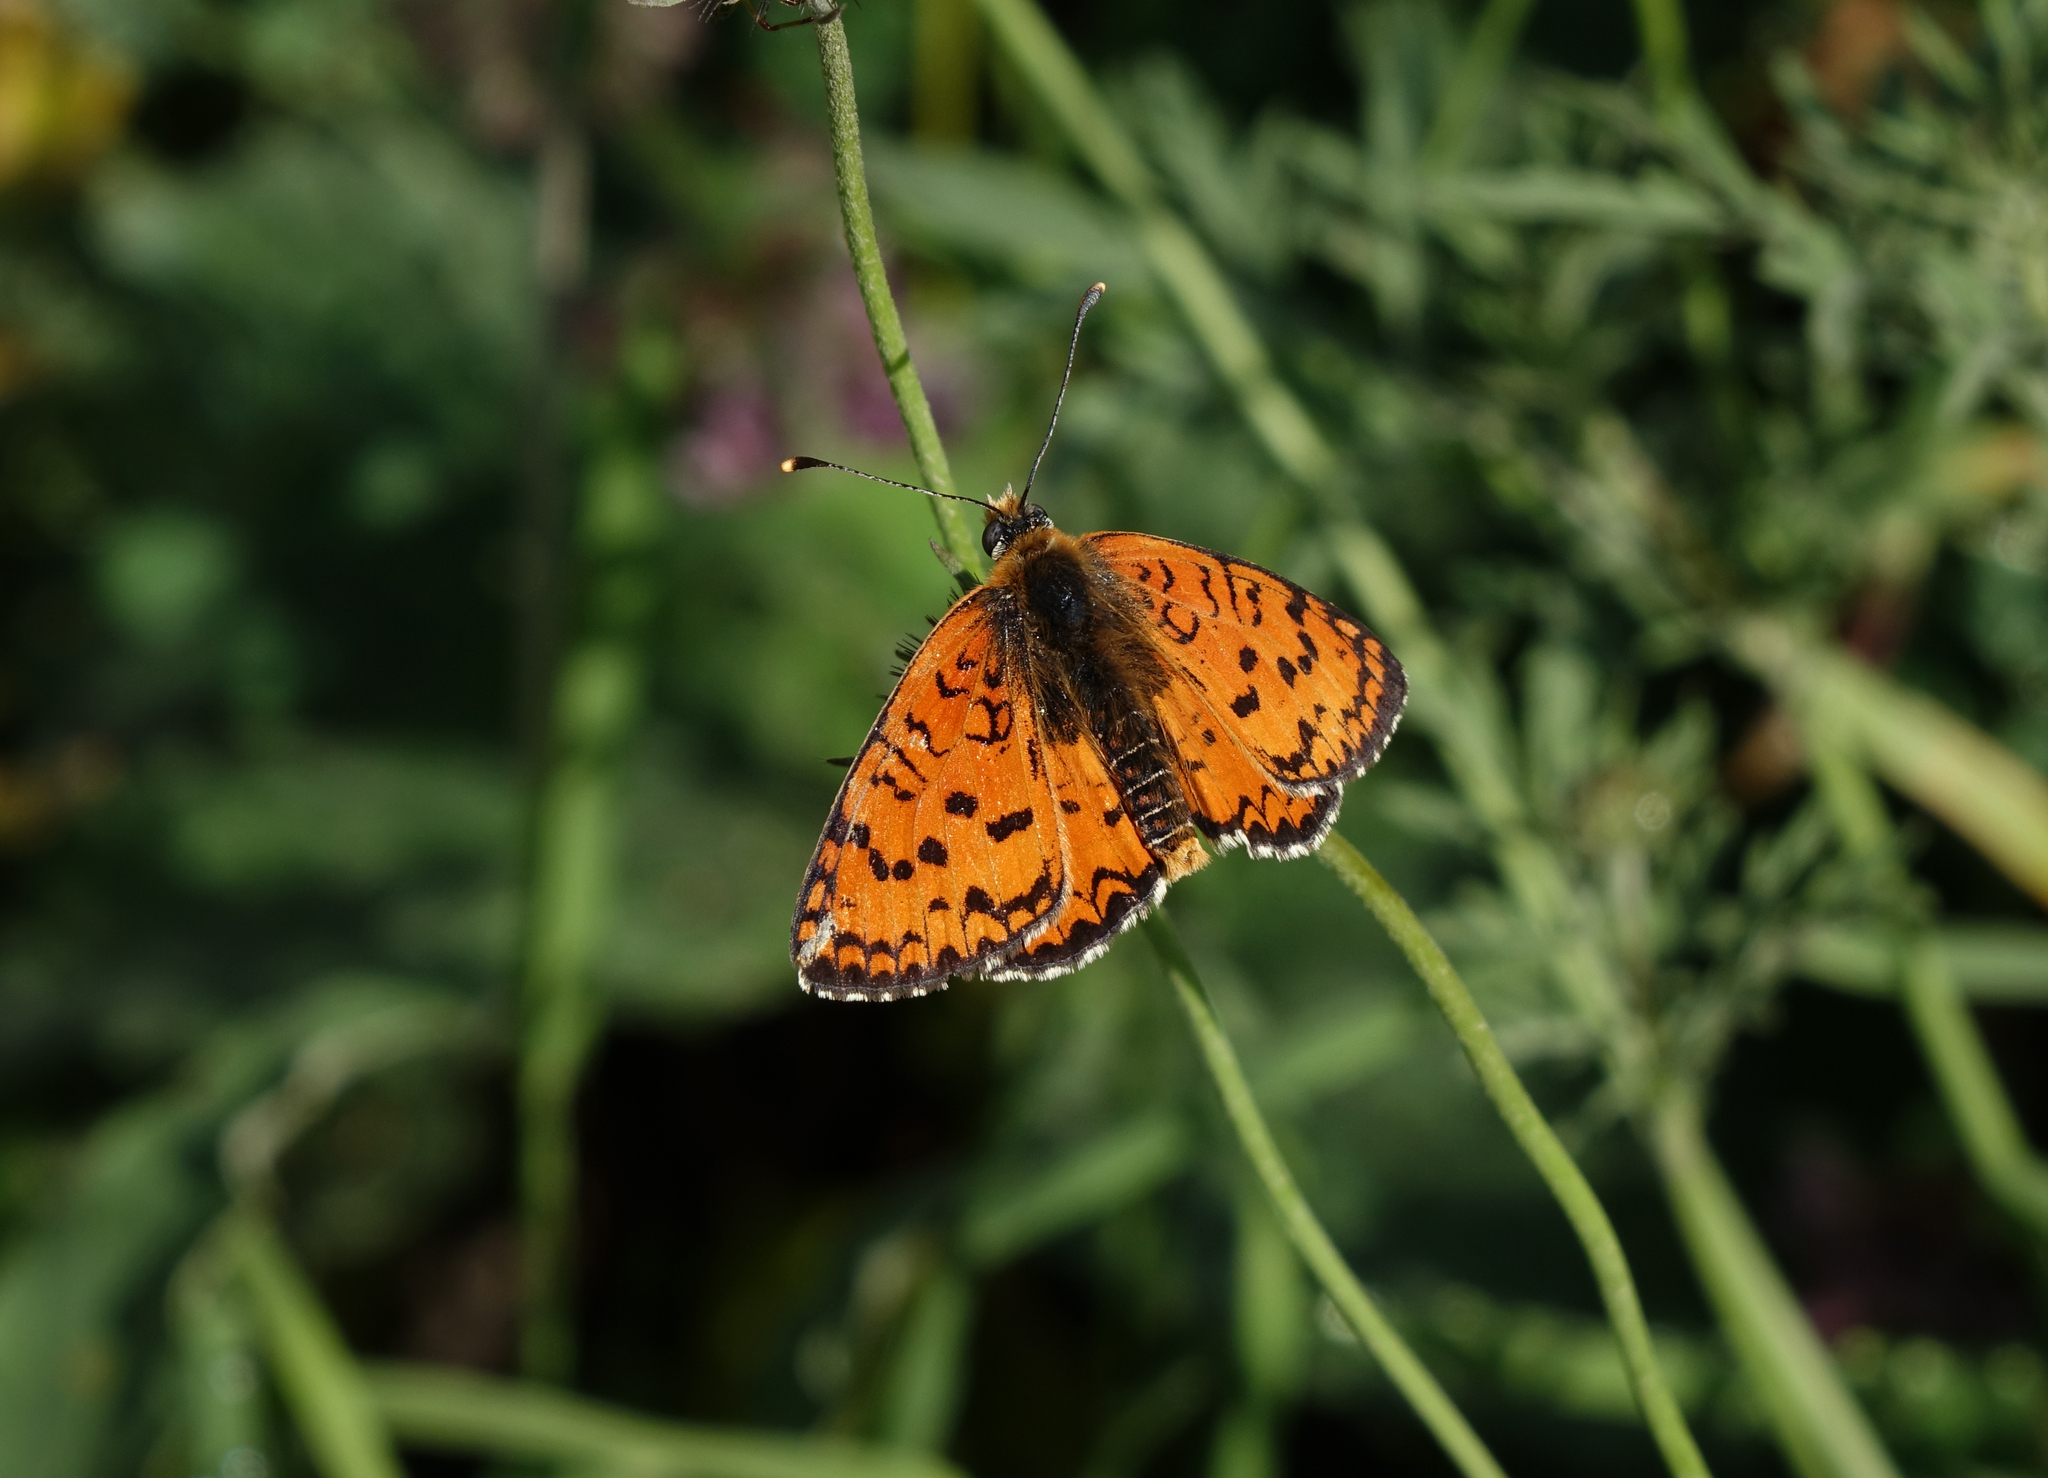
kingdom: Animalia
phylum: Arthropoda
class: Insecta
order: Lepidoptera
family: Nymphalidae
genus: Melitaea
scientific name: Melitaea cinxia
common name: Glanville fritillary
